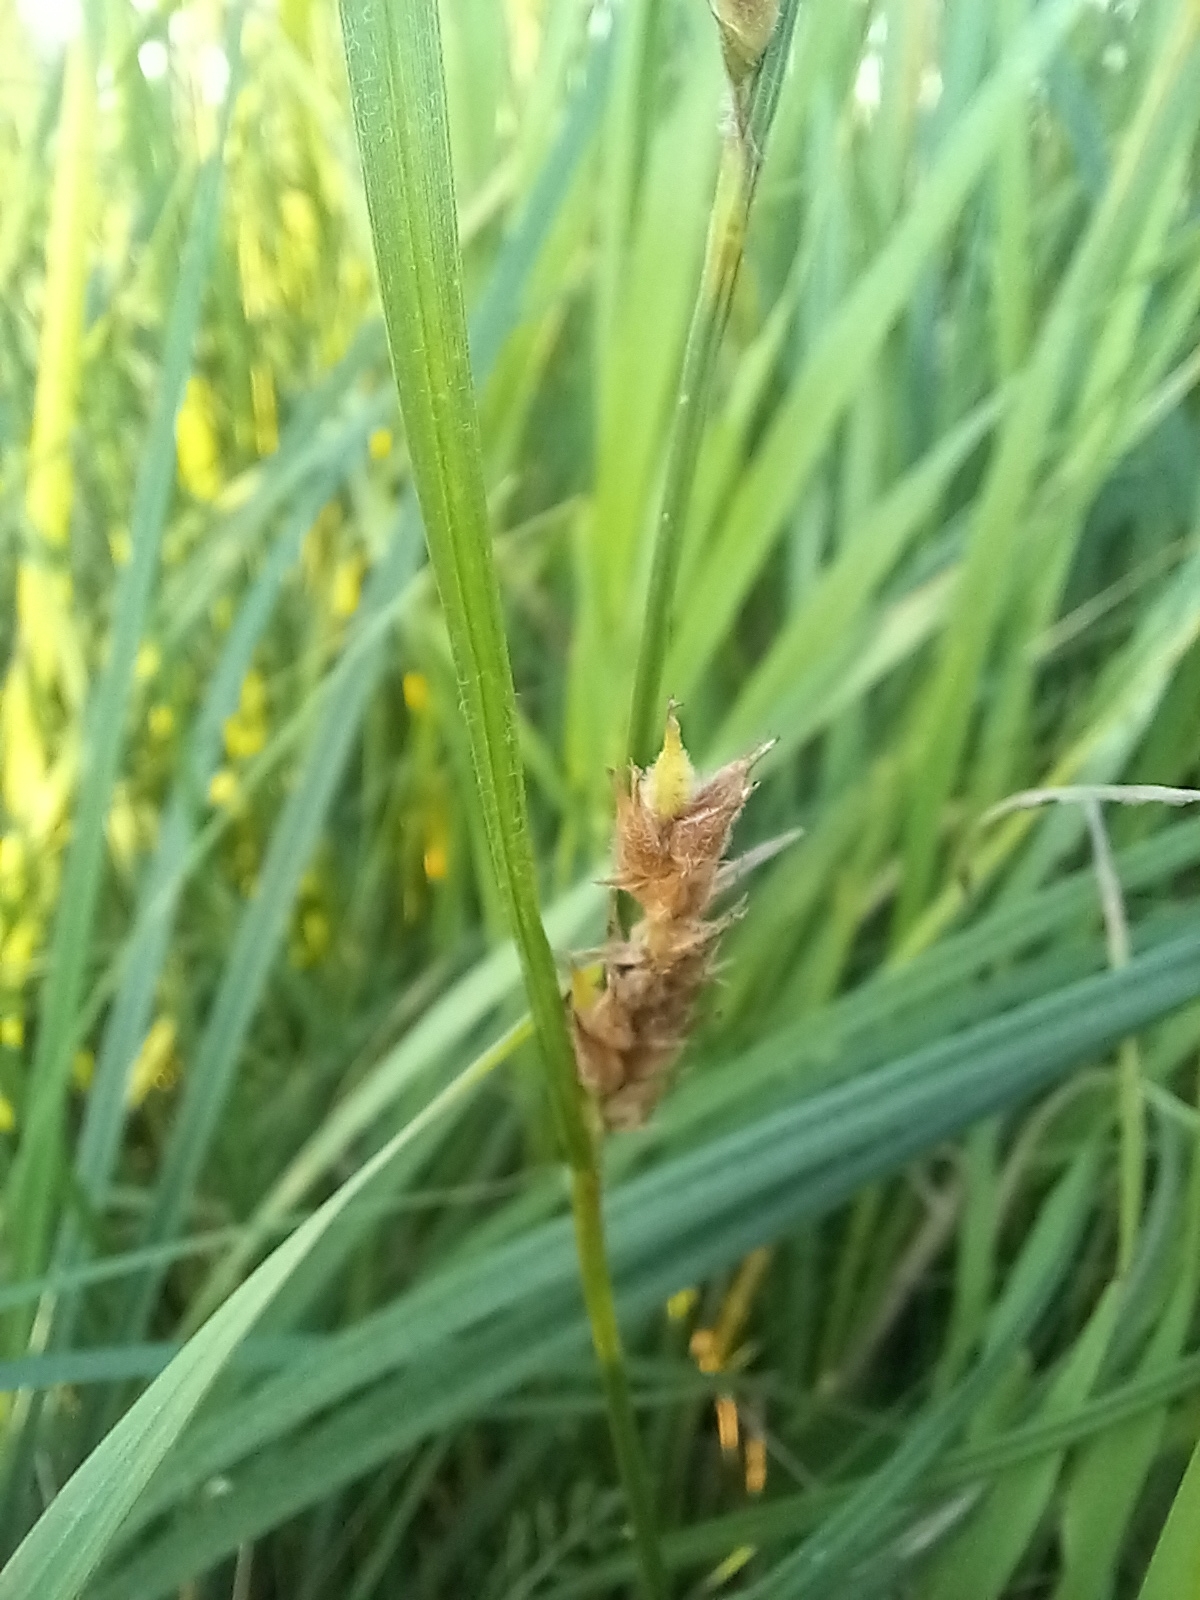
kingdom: Plantae
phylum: Tracheophyta
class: Liliopsida
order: Poales
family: Cyperaceae
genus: Carex
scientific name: Carex hirta
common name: Hairy sedge
